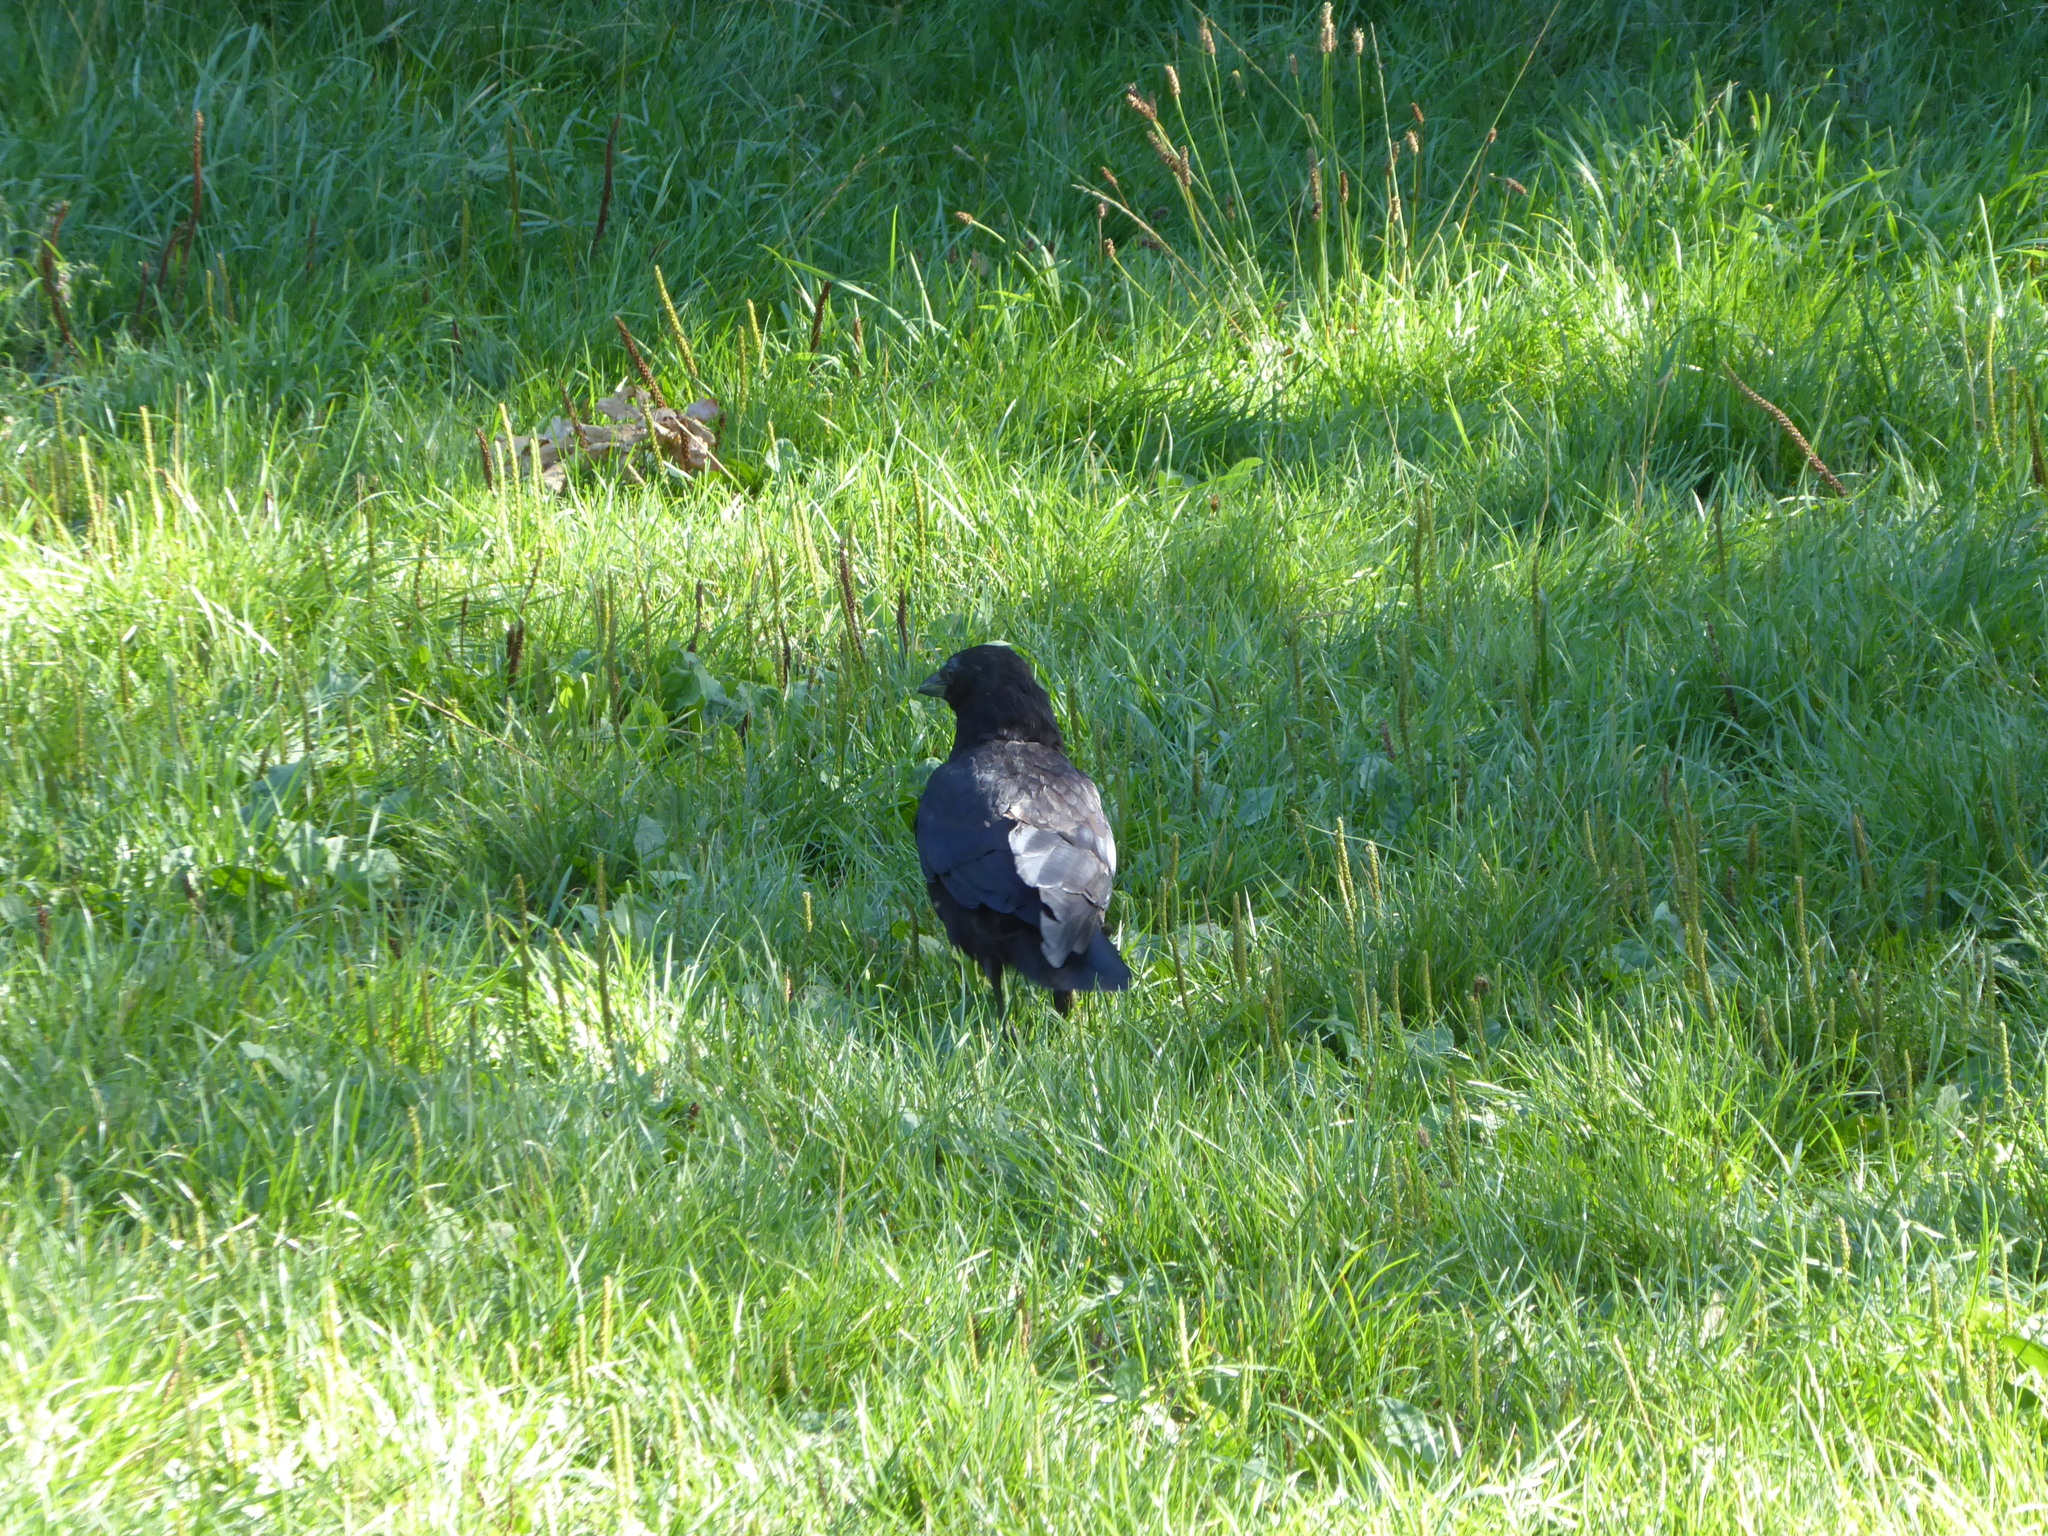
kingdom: Animalia
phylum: Chordata
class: Aves
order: Passeriformes
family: Corvidae
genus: Corvus
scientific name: Corvus corone
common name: Carrion crow
